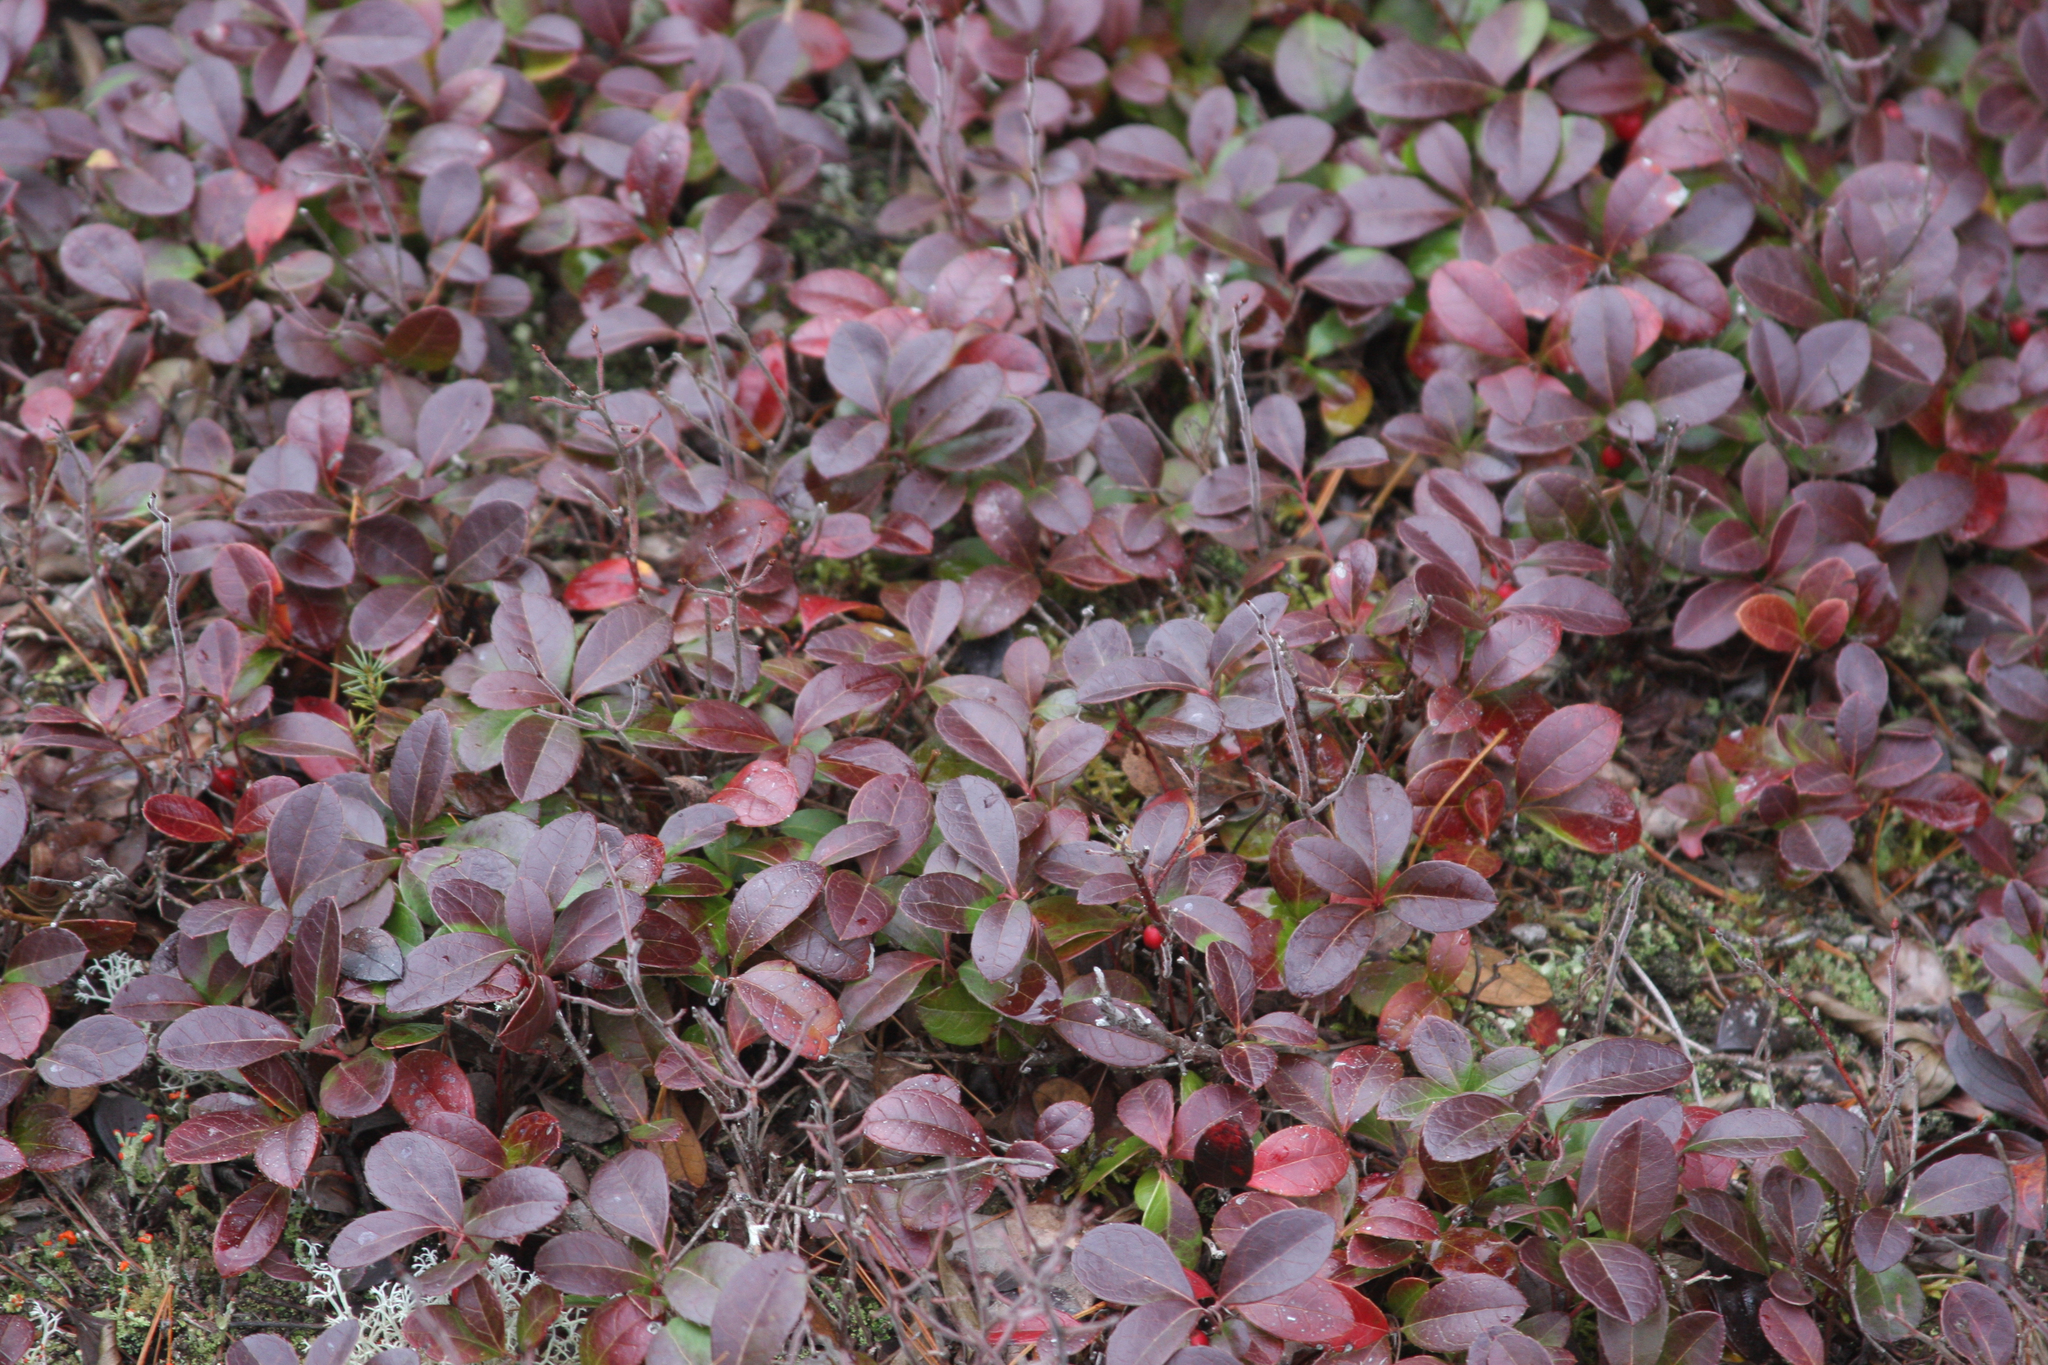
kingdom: Plantae
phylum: Tracheophyta
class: Magnoliopsida
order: Ericales
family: Ericaceae
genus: Gaultheria
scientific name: Gaultheria procumbens
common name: Checkerberry
